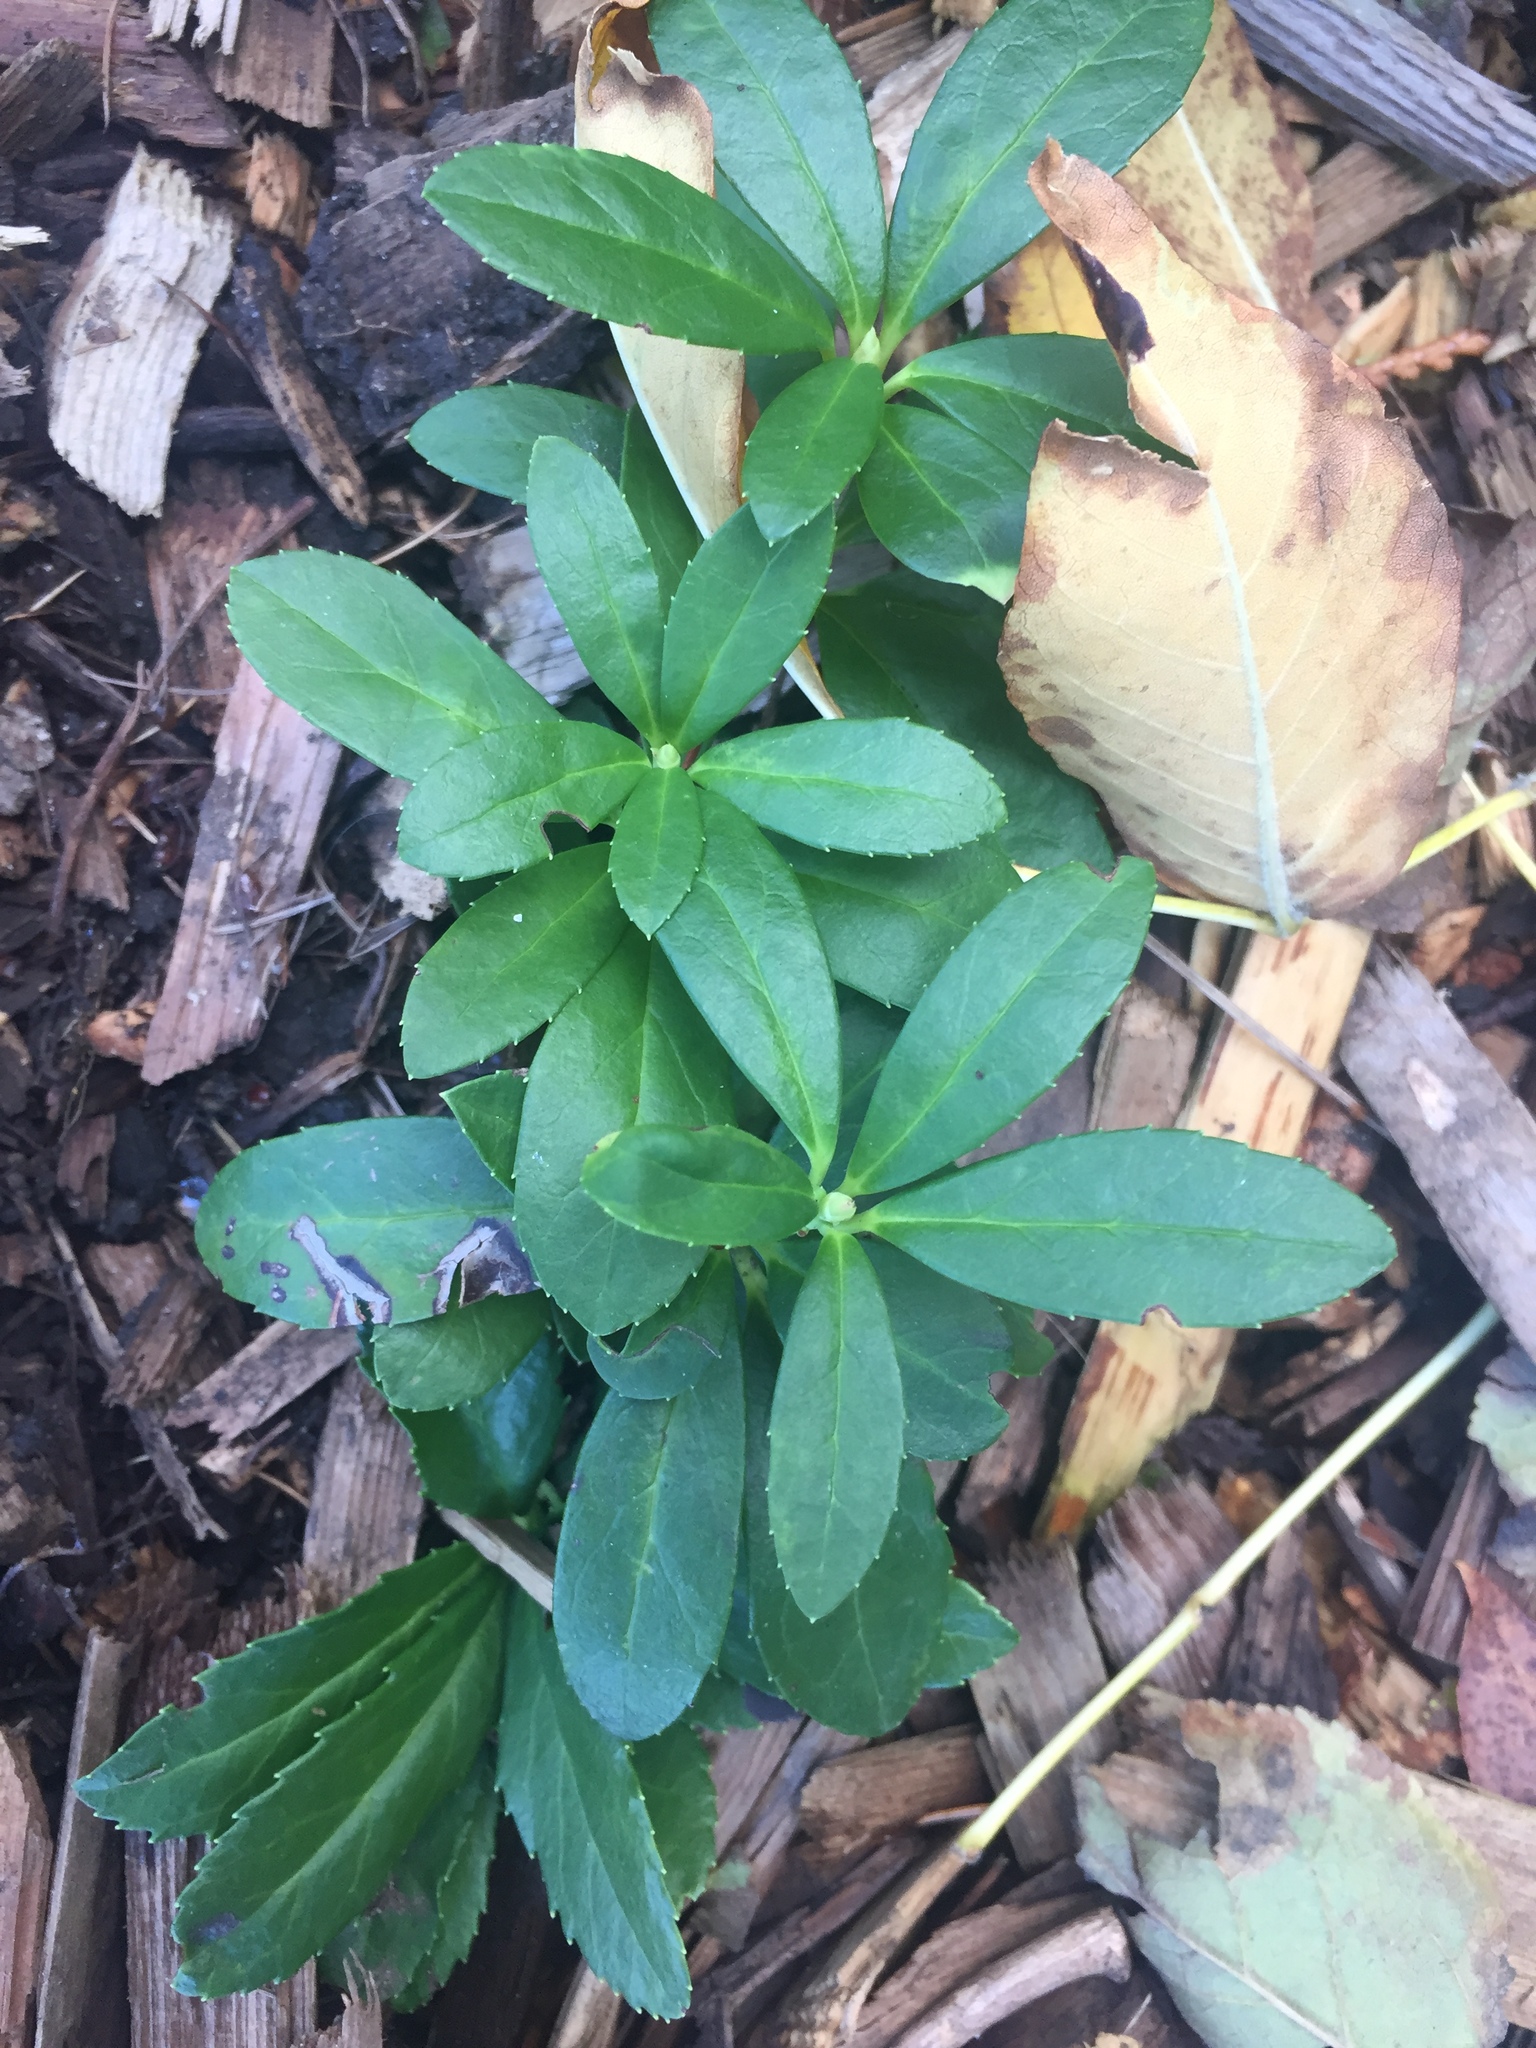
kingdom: Plantae
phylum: Tracheophyta
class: Magnoliopsida
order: Ericales
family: Ericaceae
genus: Chimaphila
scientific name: Chimaphila umbellata
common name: Pipsissewa
